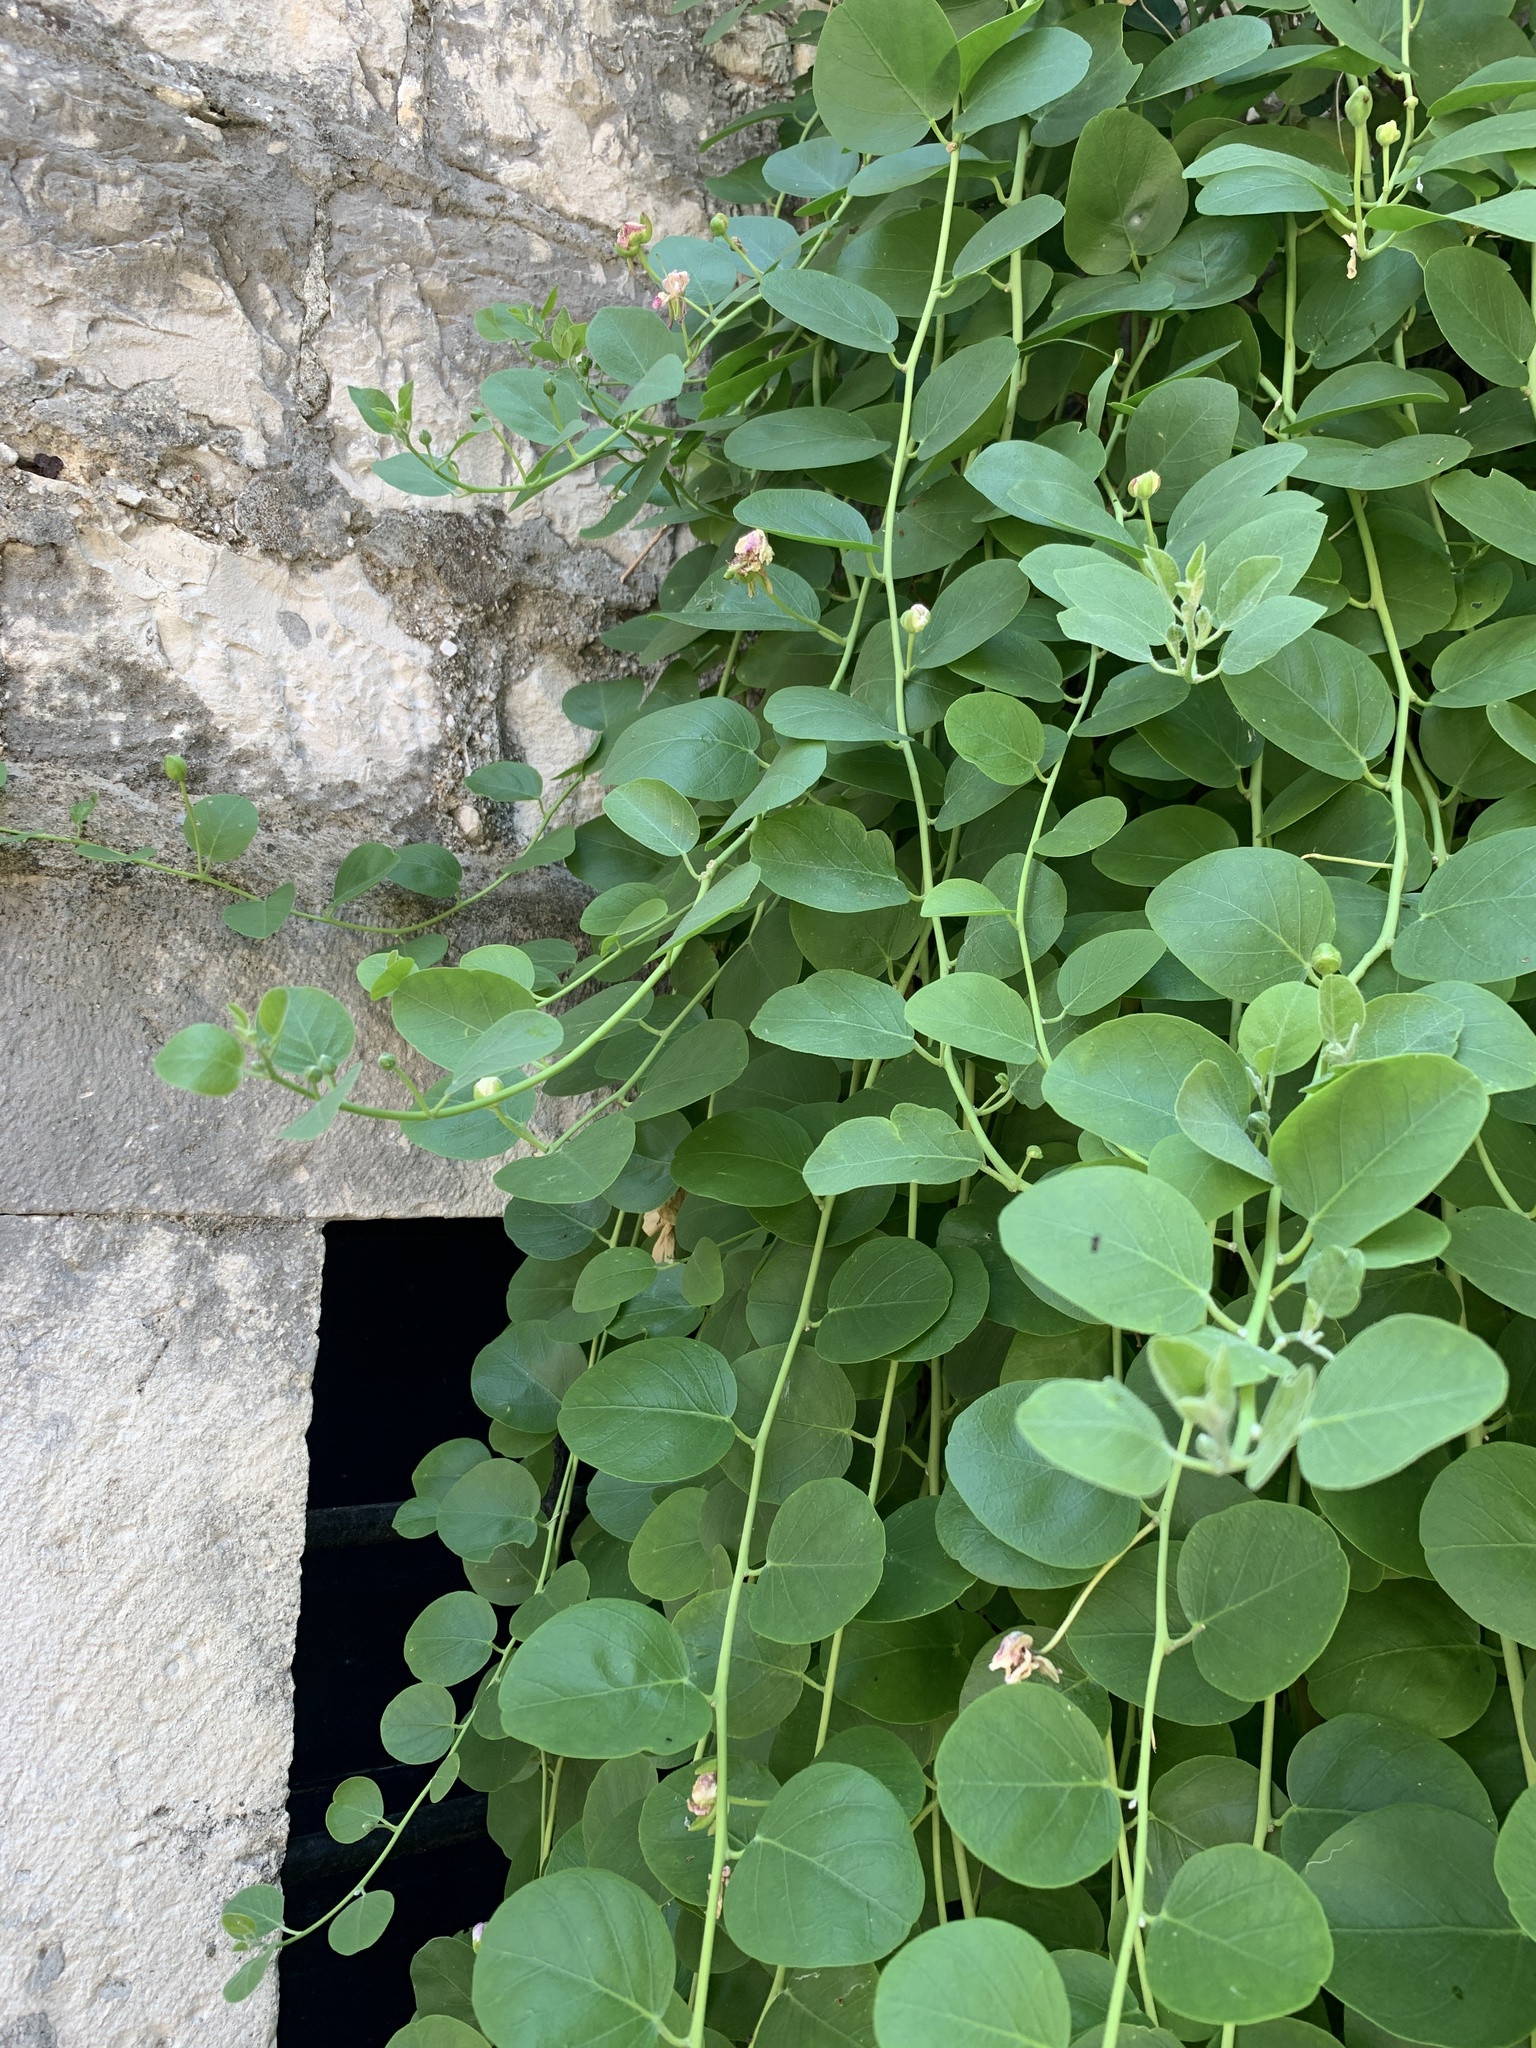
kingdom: Plantae
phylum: Tracheophyta
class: Magnoliopsida
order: Brassicales
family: Capparaceae
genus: Capparis
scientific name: Capparis orientalis
